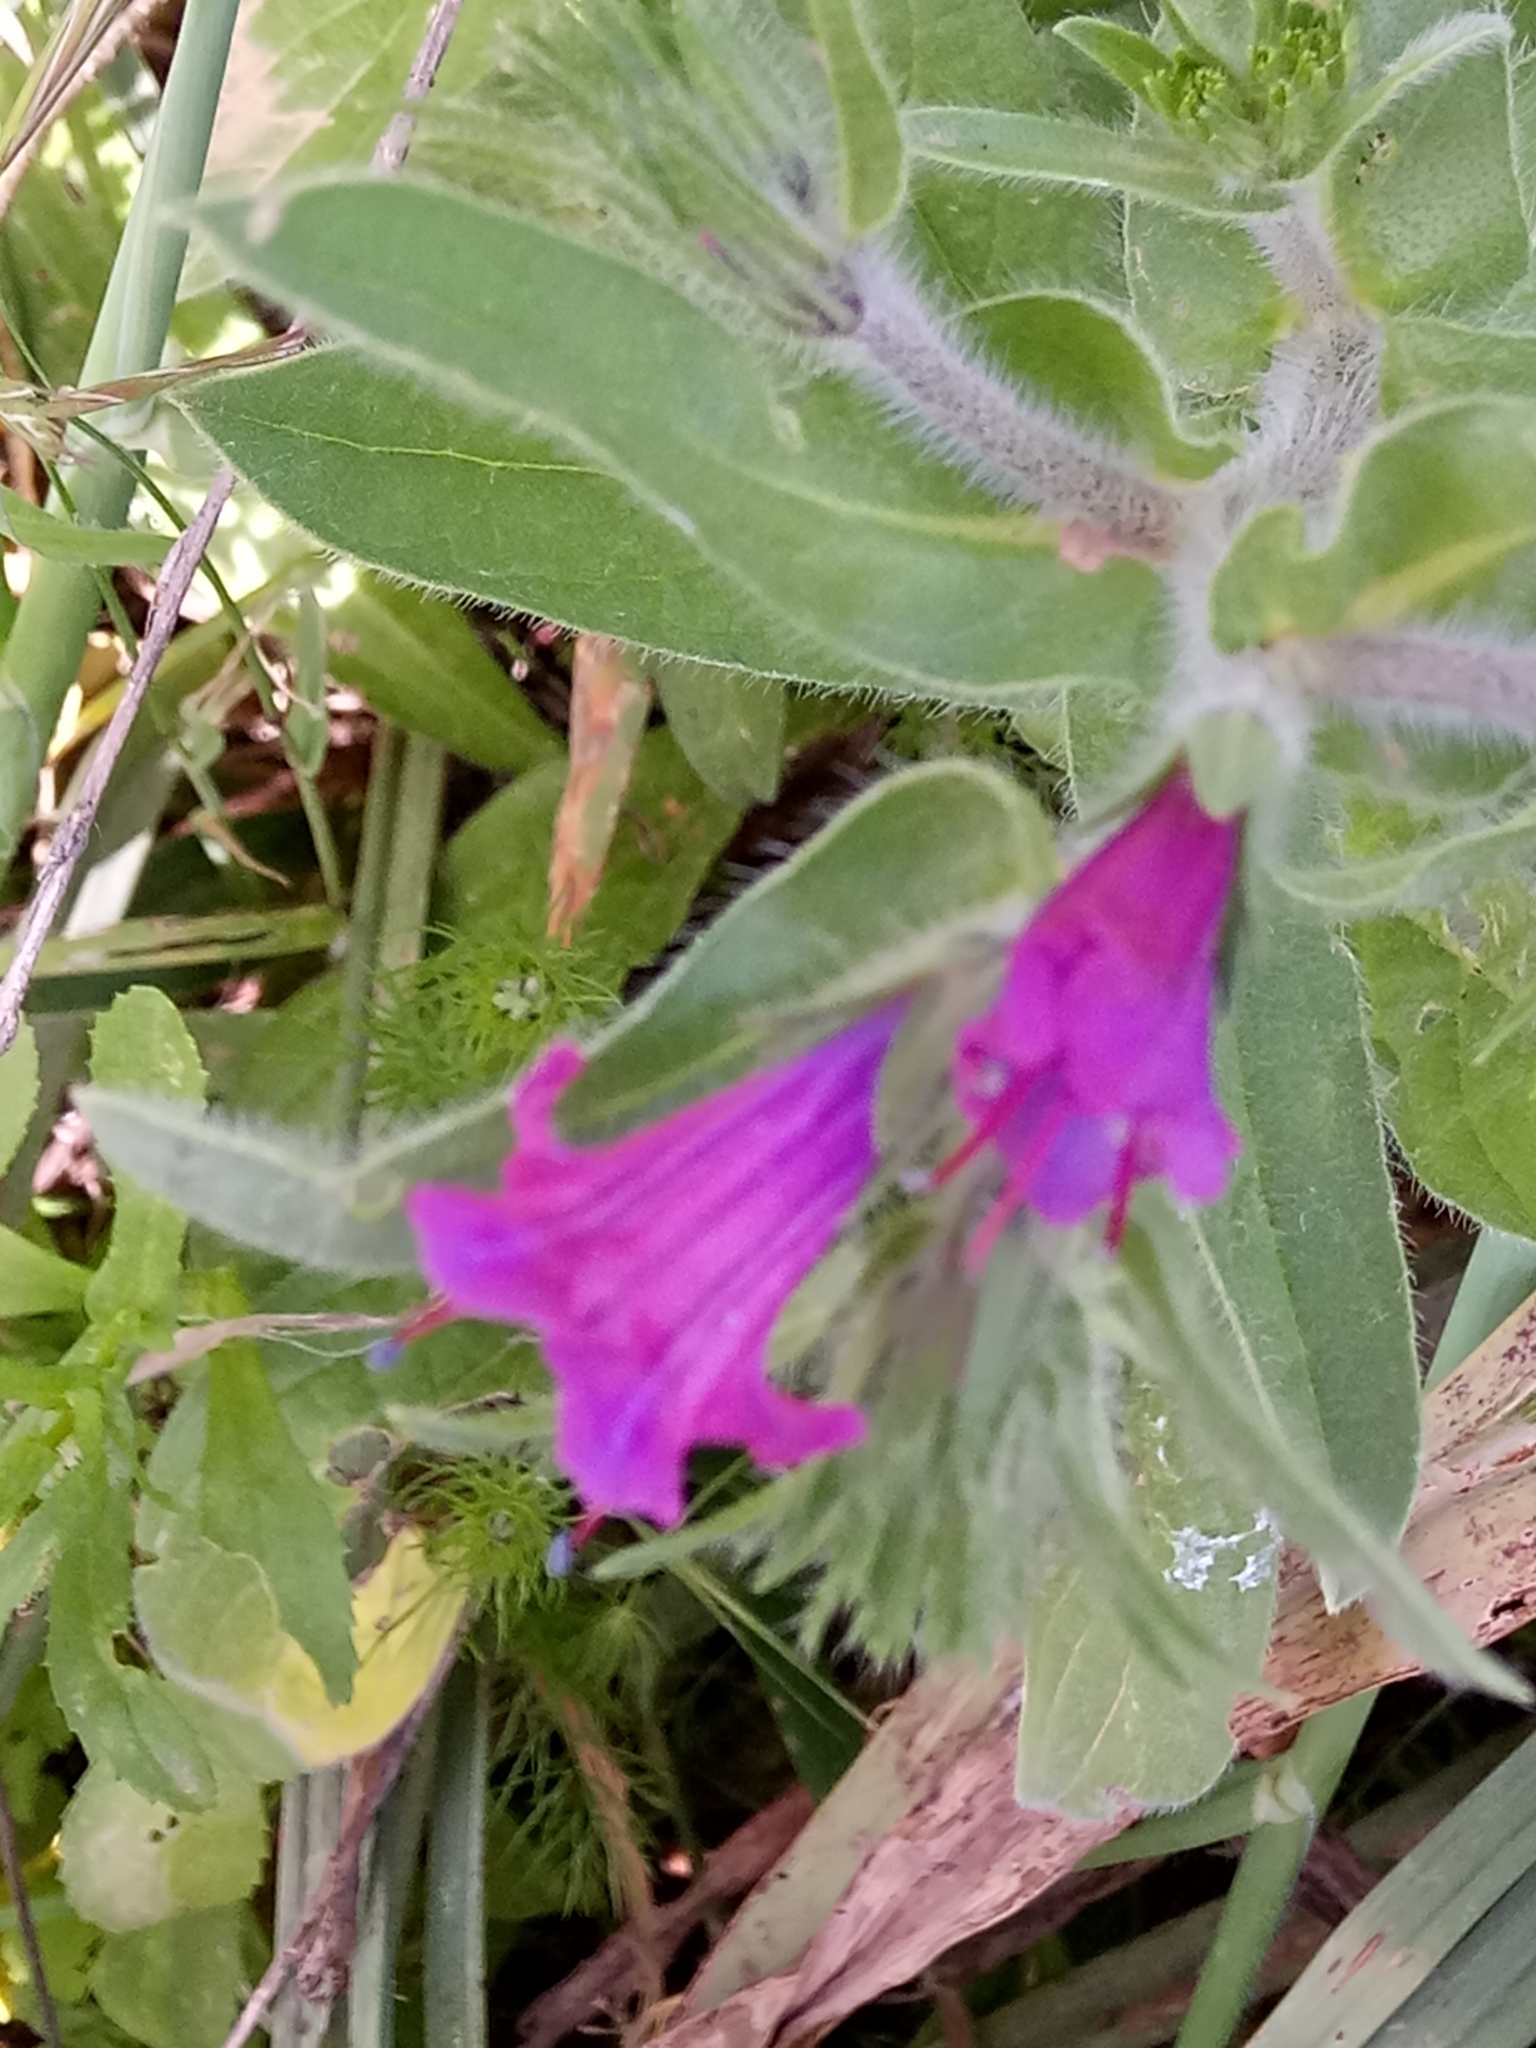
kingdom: Plantae
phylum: Tracheophyta
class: Magnoliopsida
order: Boraginales
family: Boraginaceae
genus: Echium
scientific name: Echium plantagineum
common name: Purple viper's-bugloss
